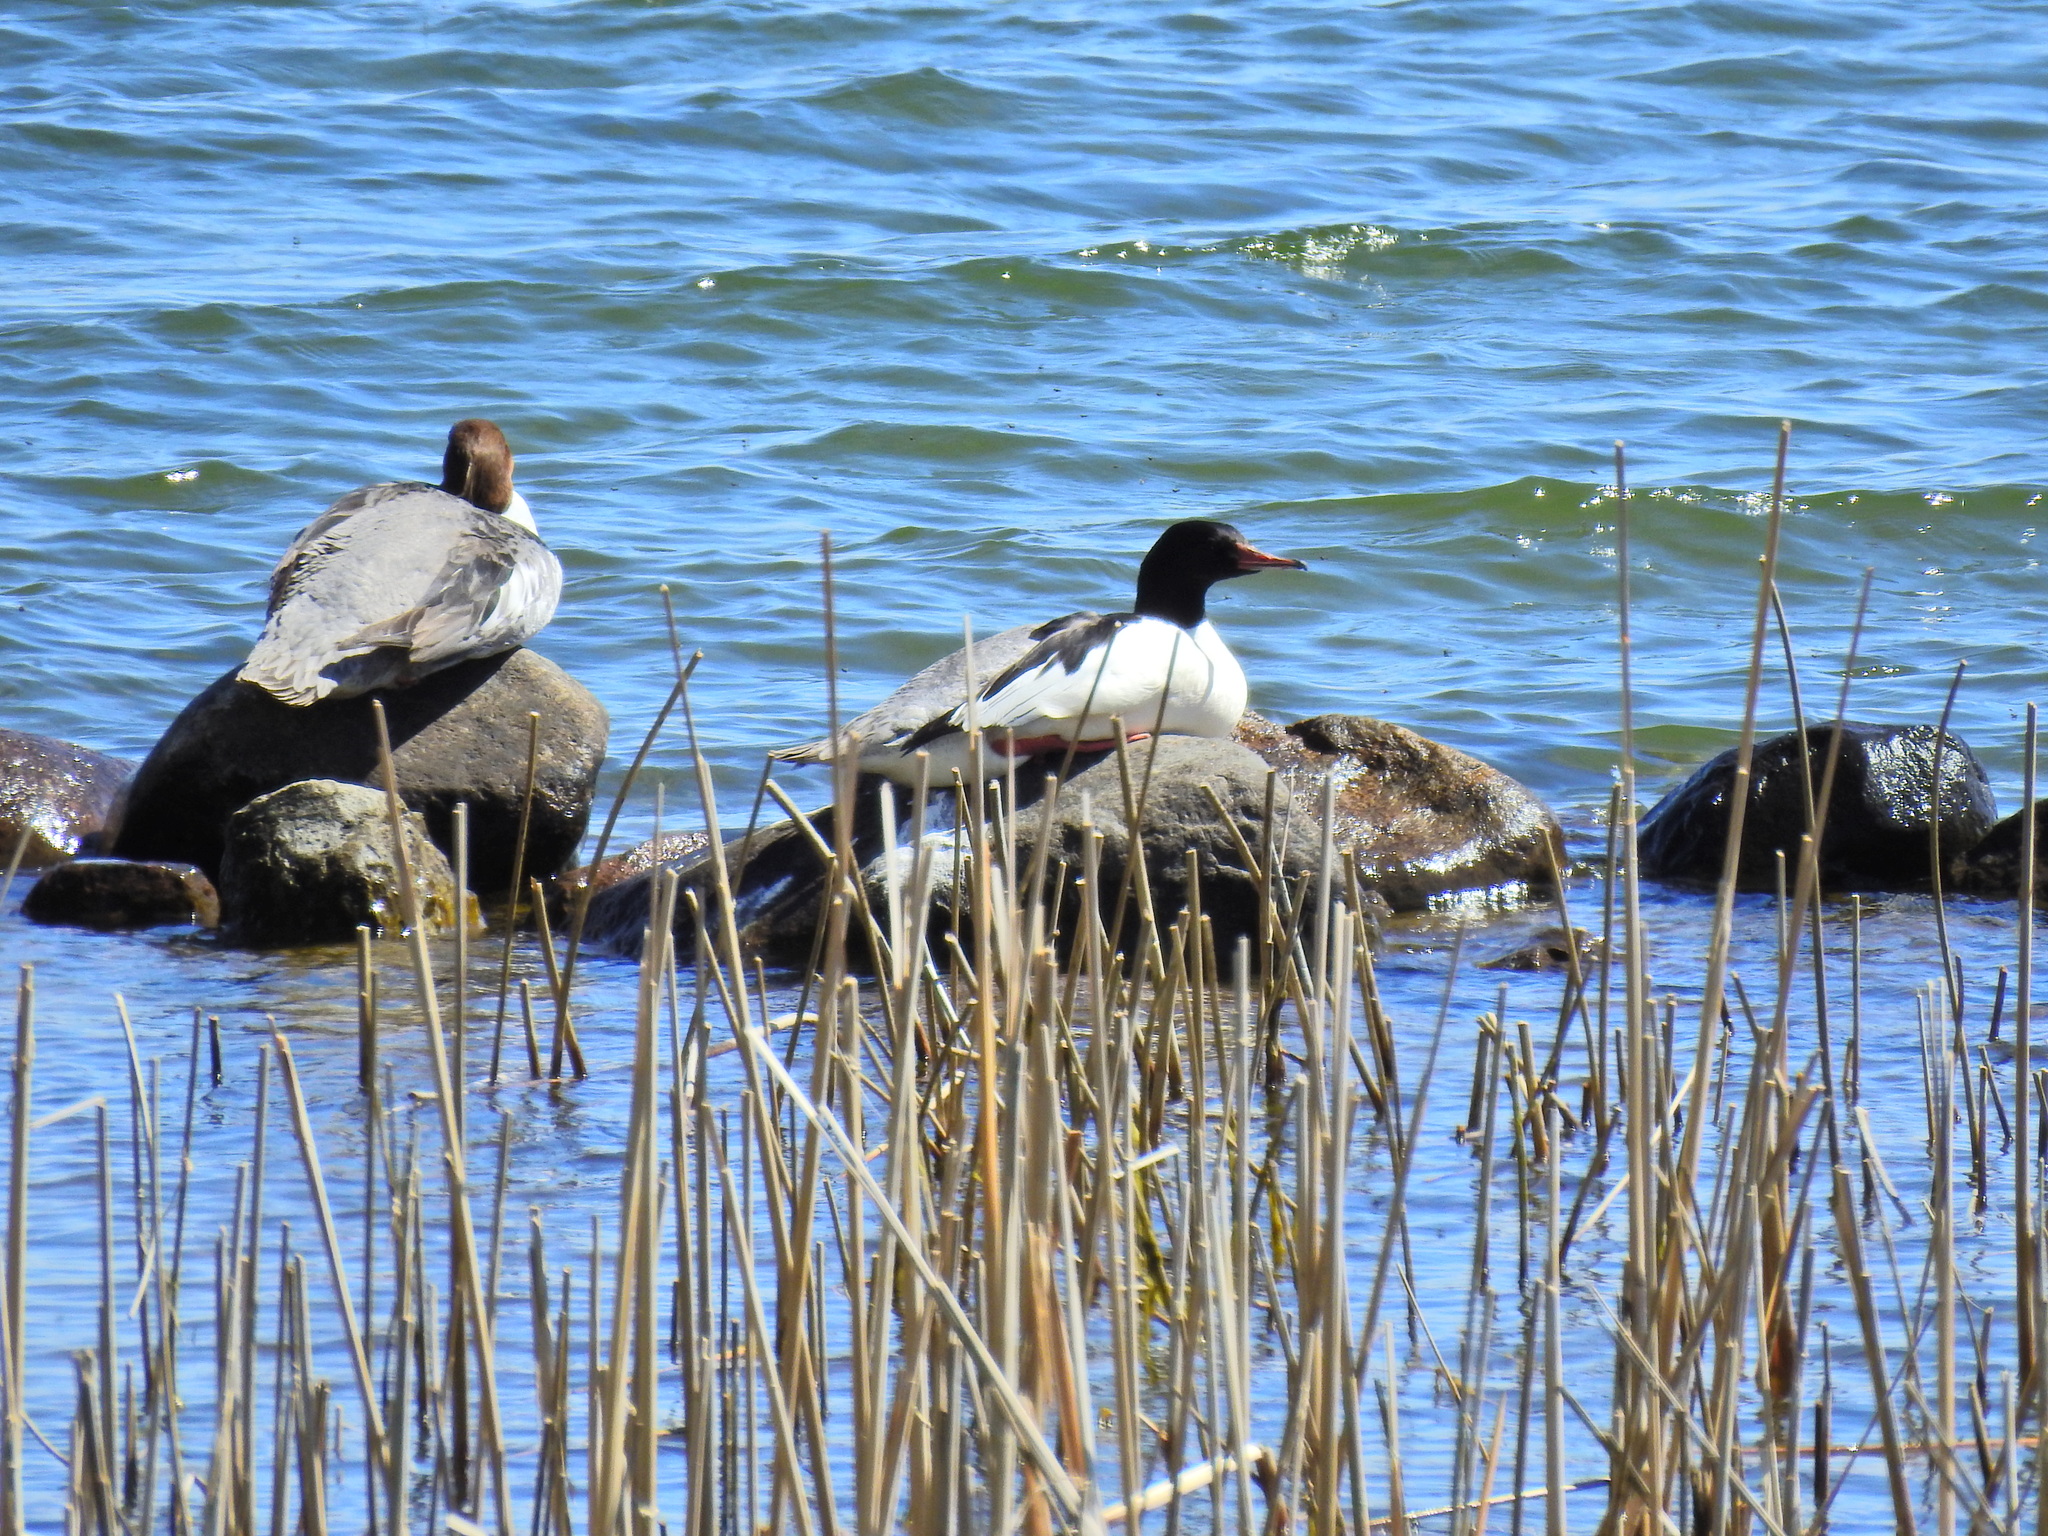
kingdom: Animalia
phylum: Chordata
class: Aves
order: Anseriformes
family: Anatidae
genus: Mergus
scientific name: Mergus merganser
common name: Common merganser
